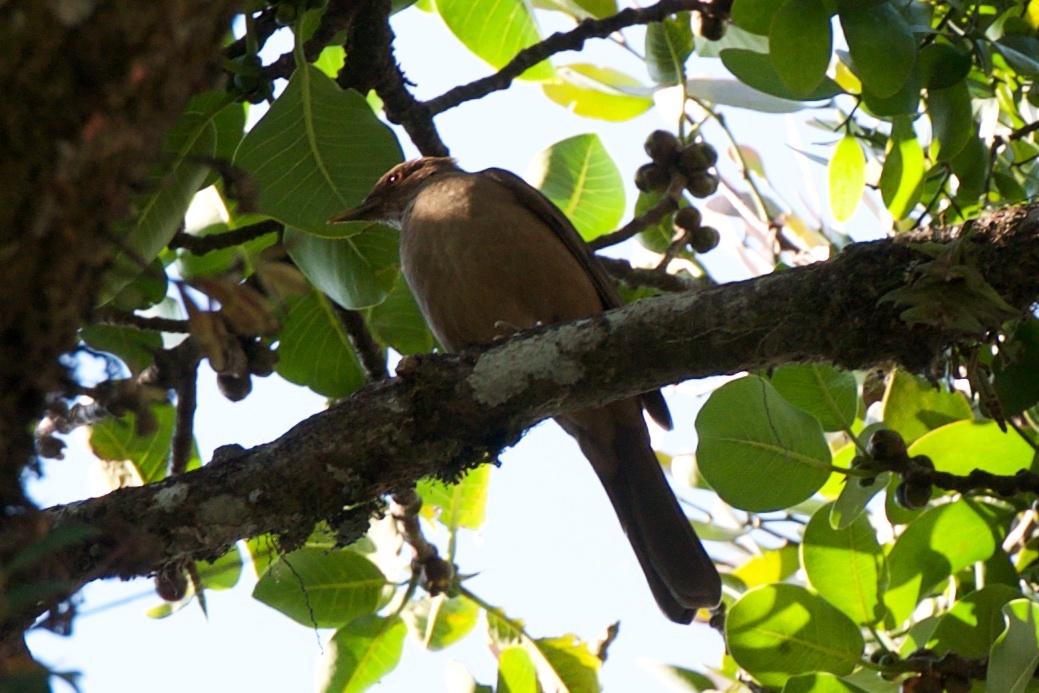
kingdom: Animalia
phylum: Chordata
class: Aves
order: Passeriformes
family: Turdidae
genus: Turdus
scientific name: Turdus grayi
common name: Clay-colored thrush
